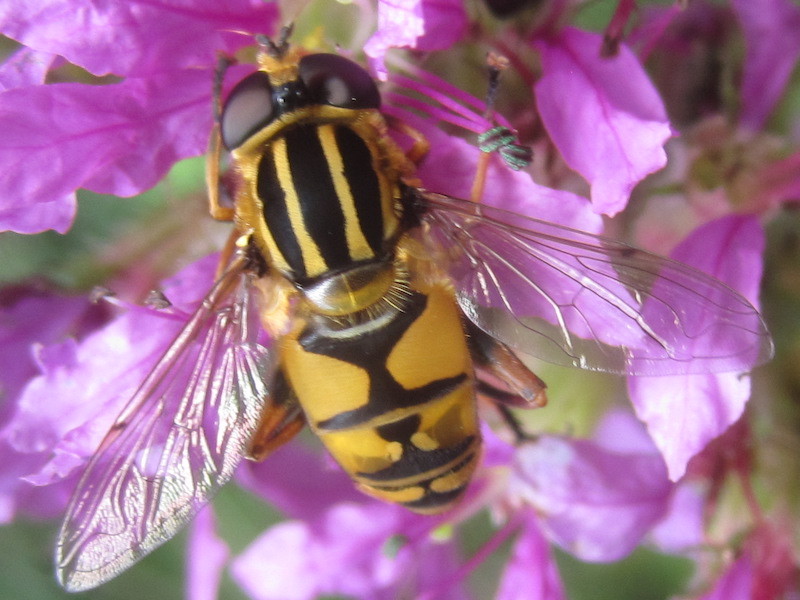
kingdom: Animalia
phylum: Arthropoda
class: Insecta
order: Diptera
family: Syrphidae
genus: Helophilus
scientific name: Helophilus pendulus
